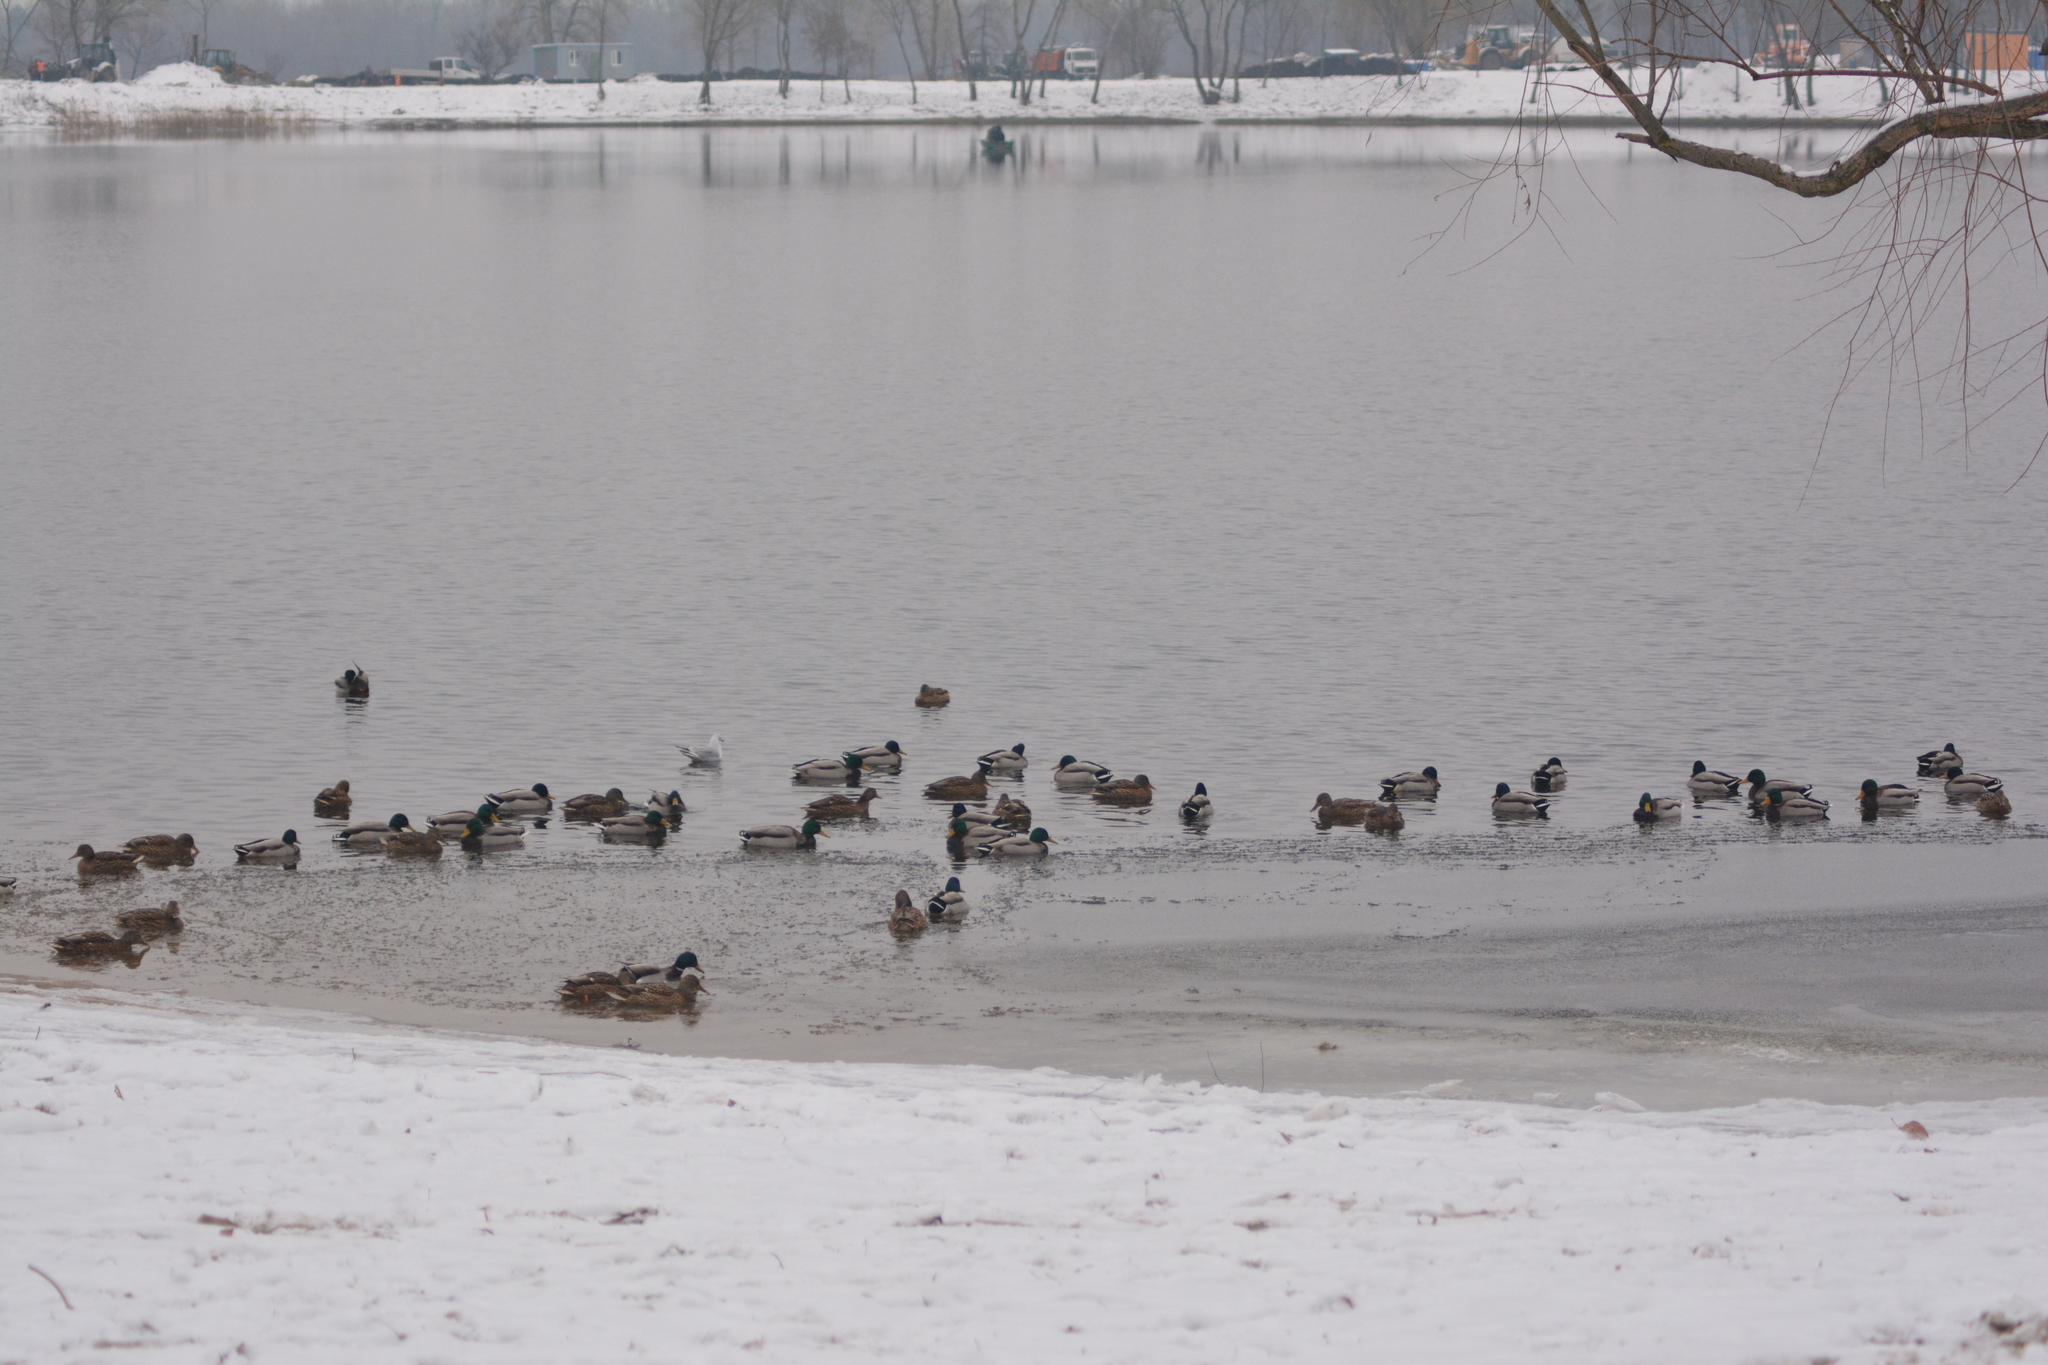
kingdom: Animalia
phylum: Chordata
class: Aves
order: Anseriformes
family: Anatidae
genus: Anas
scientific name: Anas platyrhynchos
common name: Mallard
